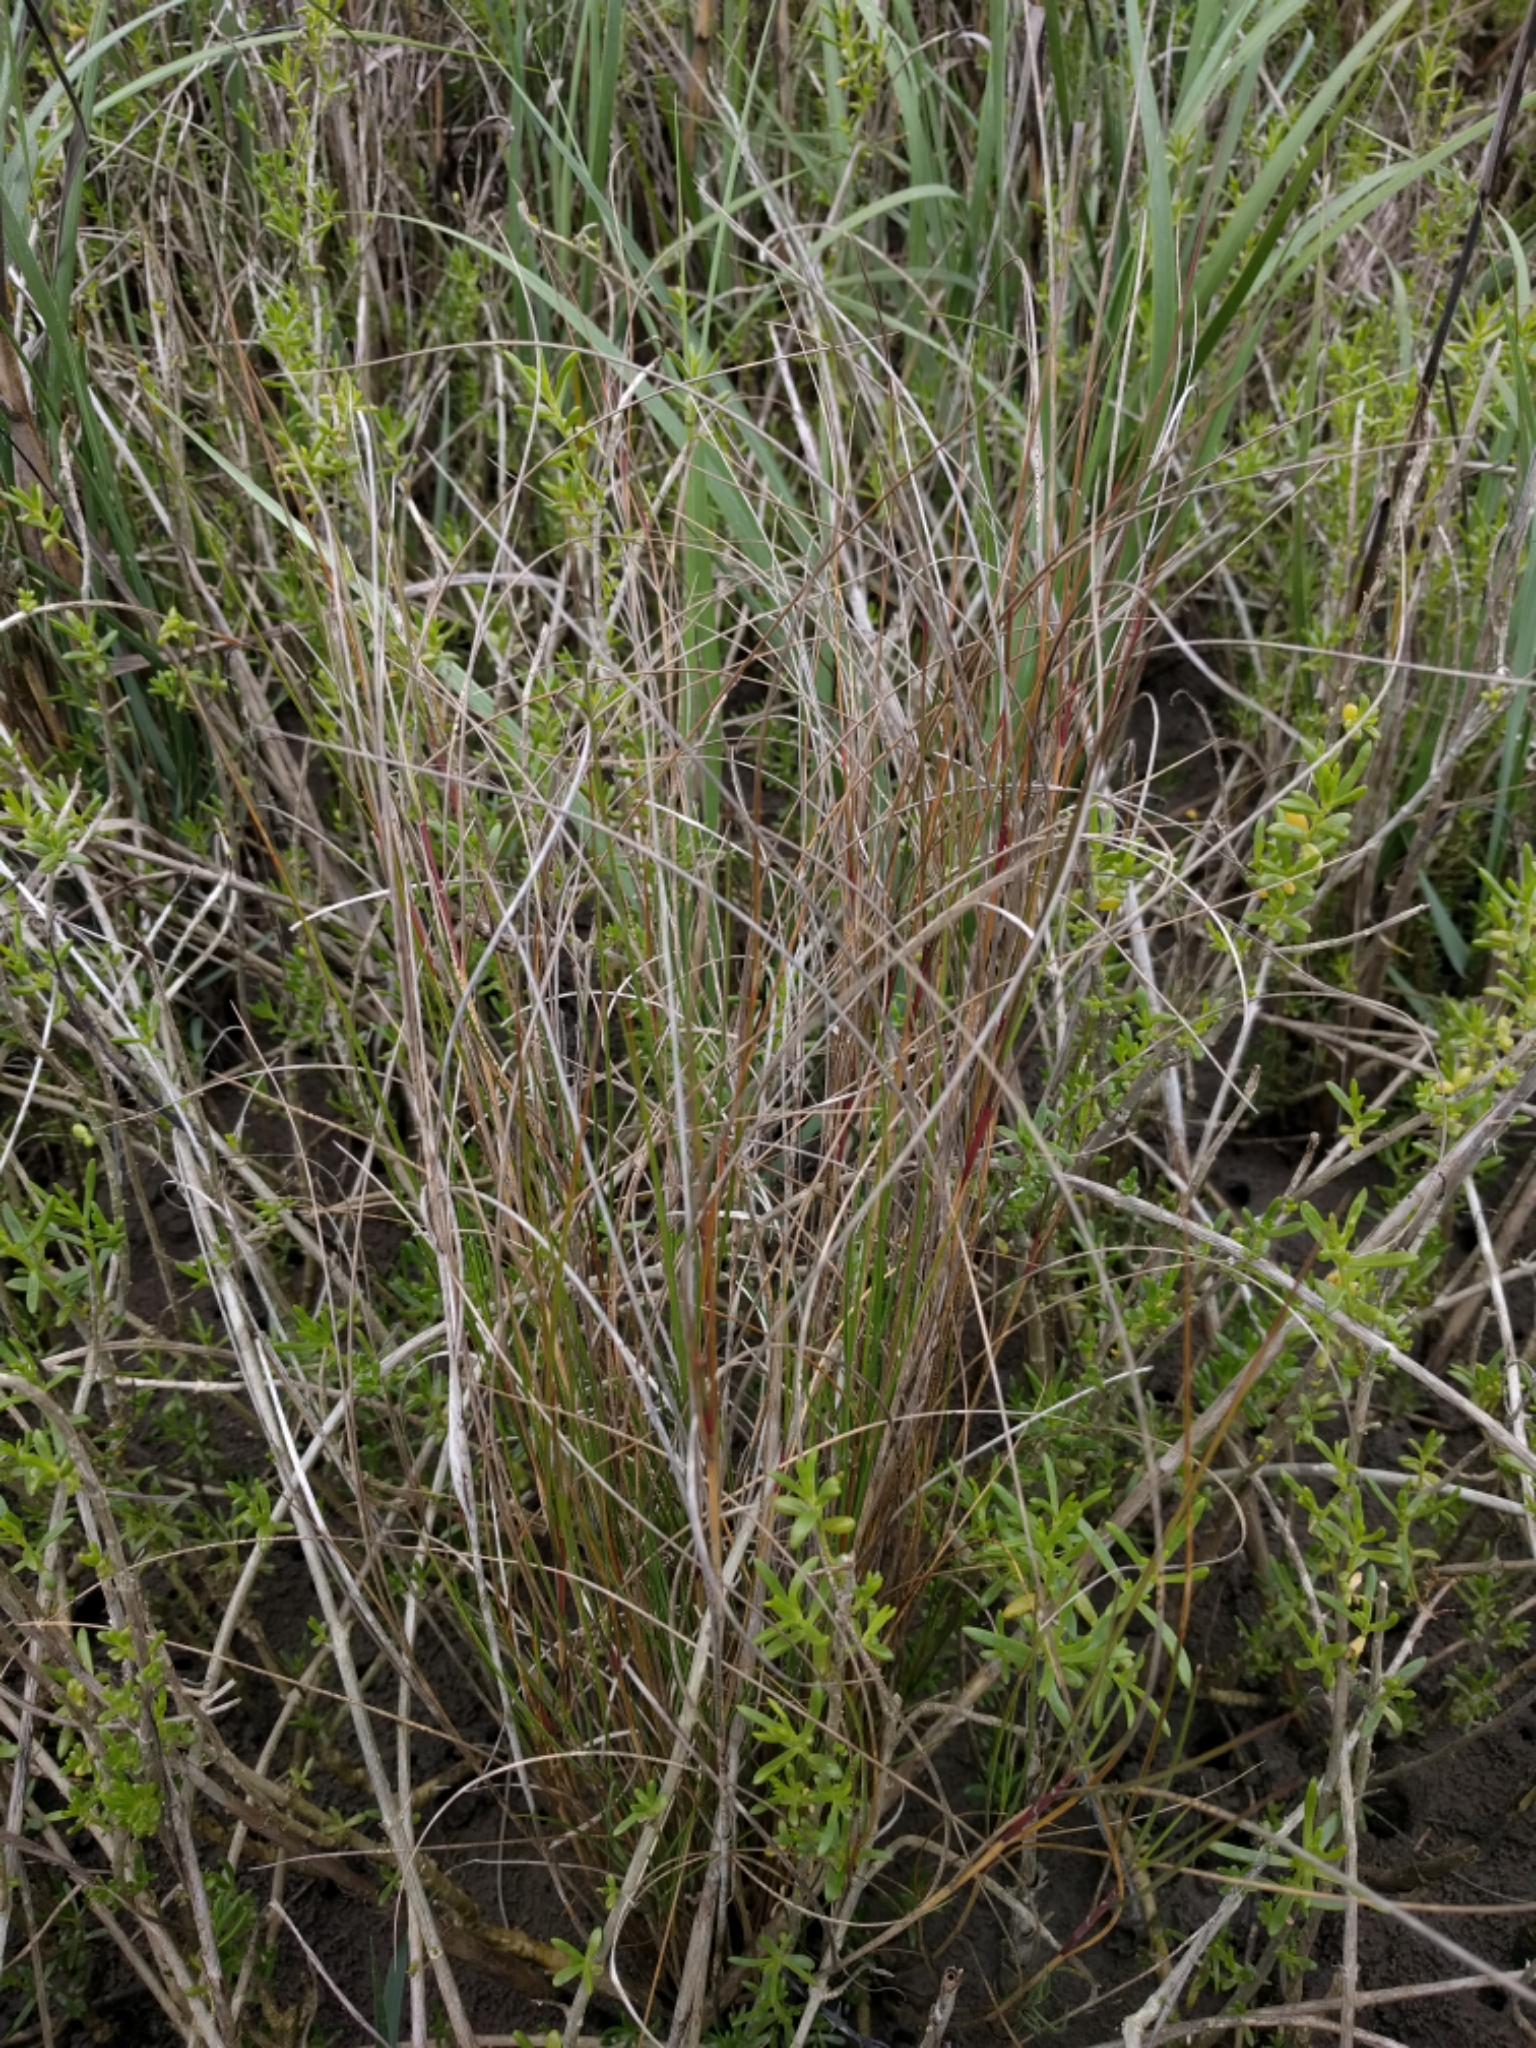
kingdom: Plantae
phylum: Tracheophyta
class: Liliopsida
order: Poales
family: Poaceae
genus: Sporobolus
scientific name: Sporobolus pumilus
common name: Highwater grass
